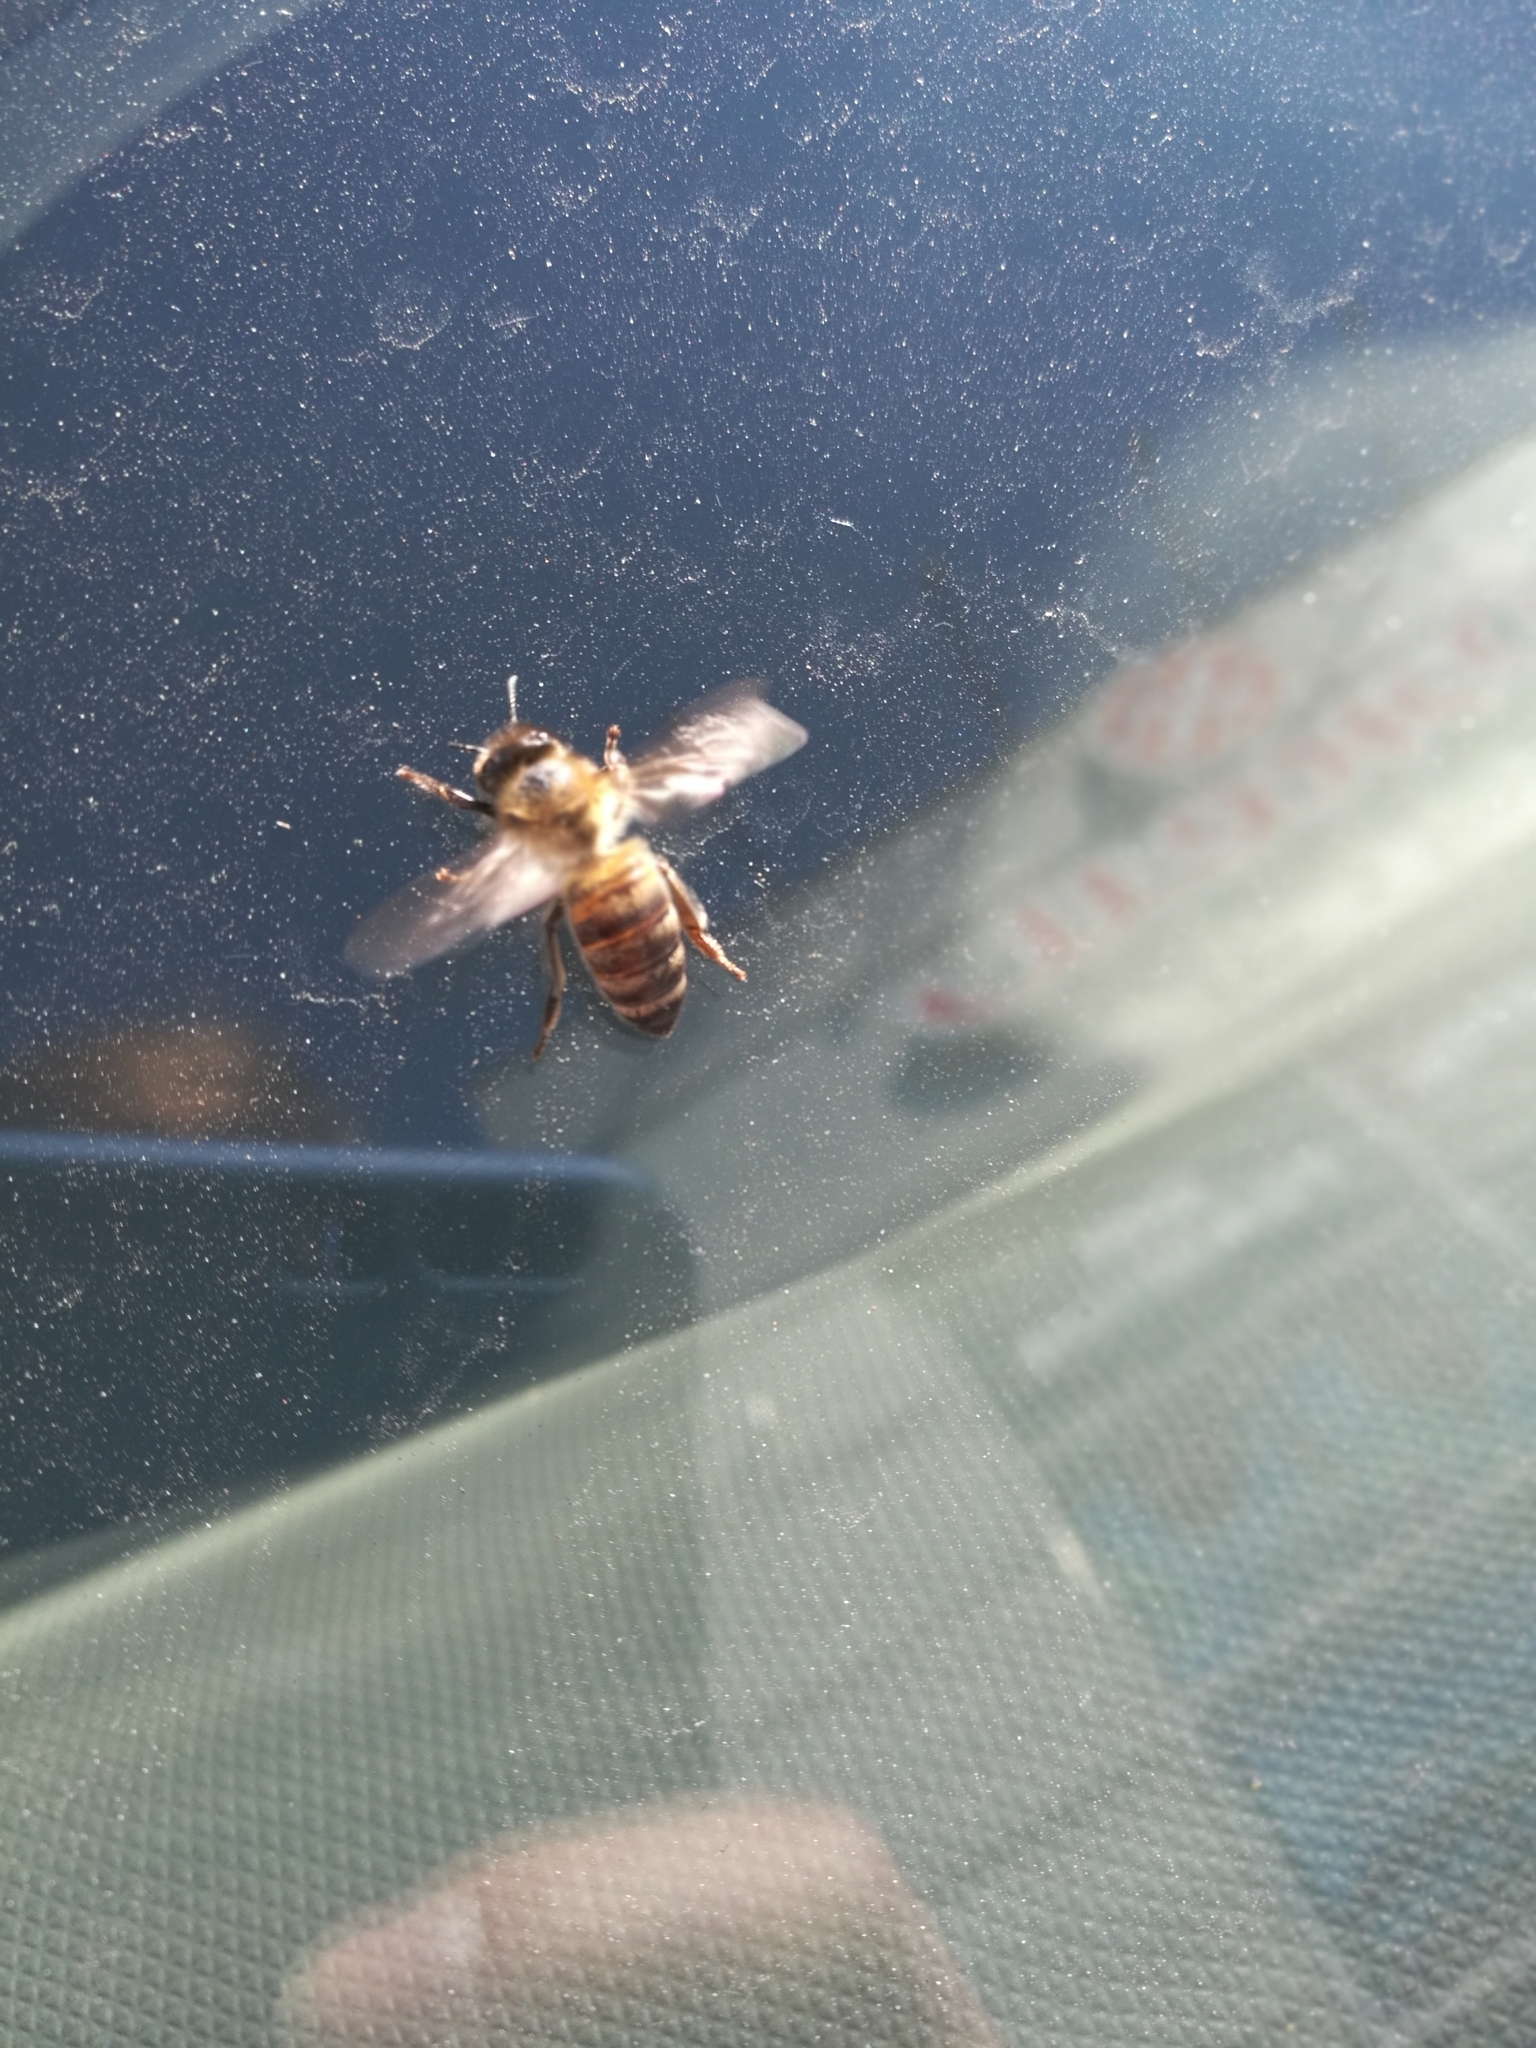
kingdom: Animalia
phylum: Arthropoda
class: Insecta
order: Hymenoptera
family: Apidae
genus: Apis
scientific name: Apis mellifera
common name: Honey bee
